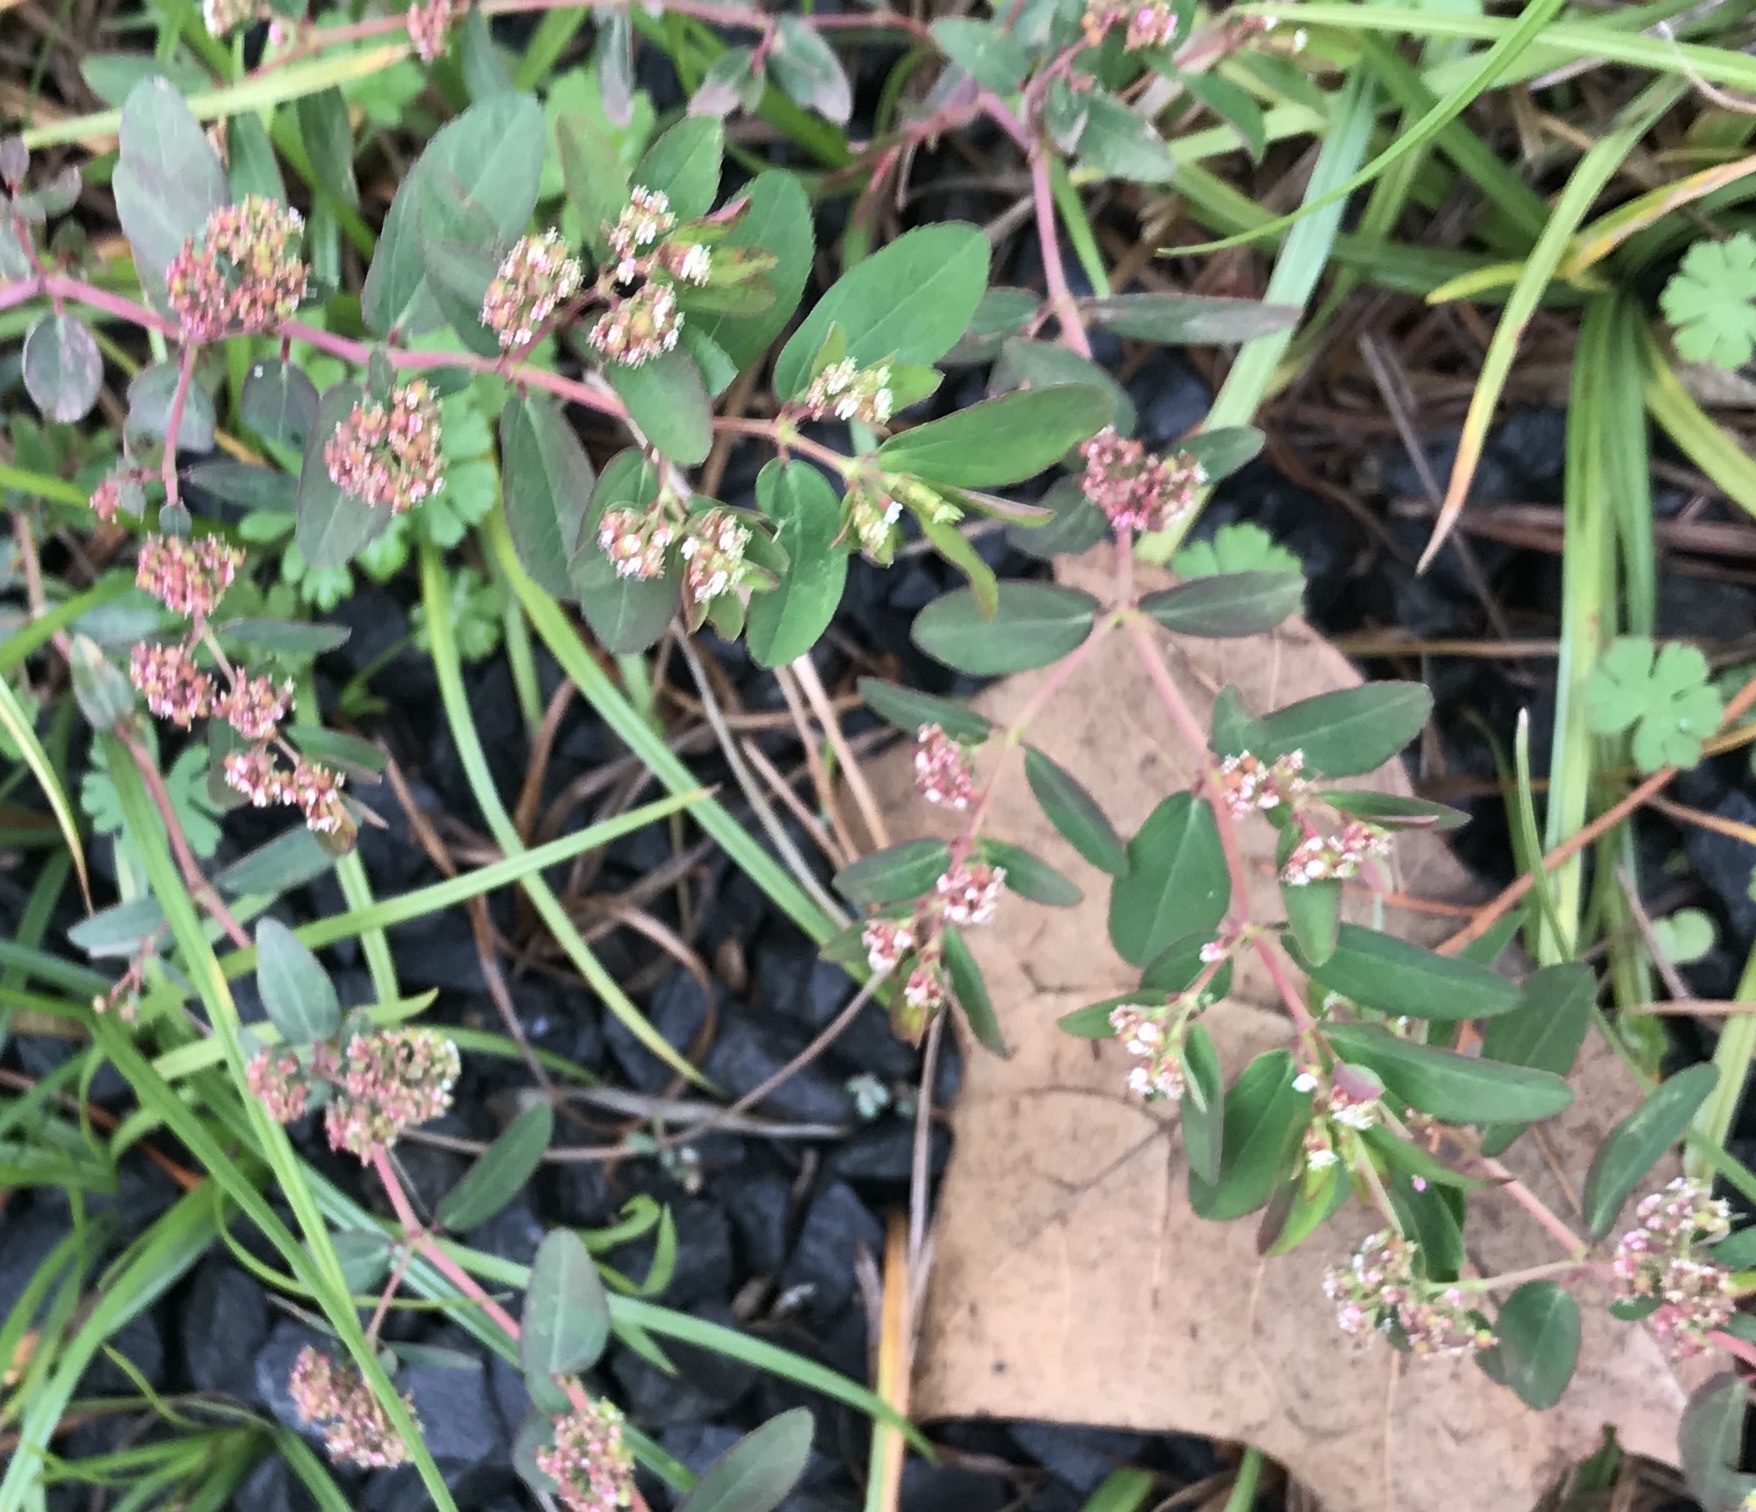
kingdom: Plantae
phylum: Tracheophyta
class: Magnoliopsida
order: Malpighiales
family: Euphorbiaceae
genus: Euphorbia
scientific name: Euphorbia hypericifolia
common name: Graceful sandmat
